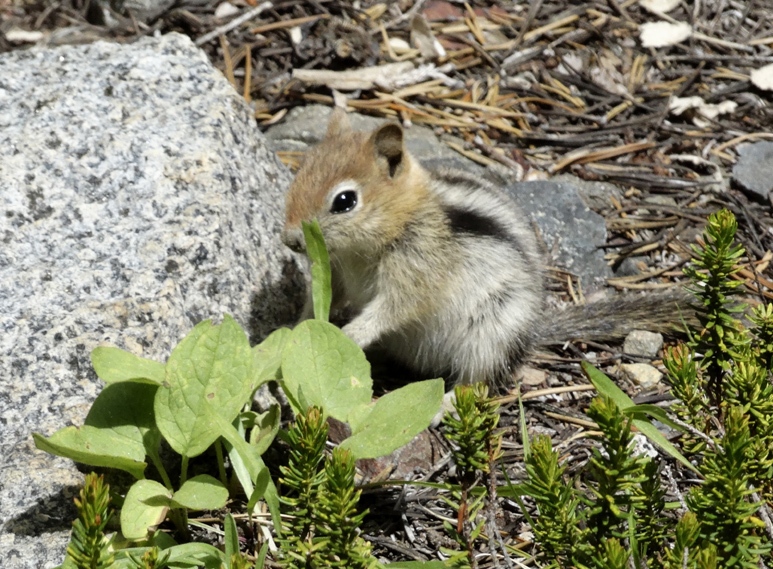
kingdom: Animalia
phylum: Chordata
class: Mammalia
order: Rodentia
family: Sciuridae
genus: Callospermophilus
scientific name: Callospermophilus lateralis
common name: Golden-mantled ground squirrel
